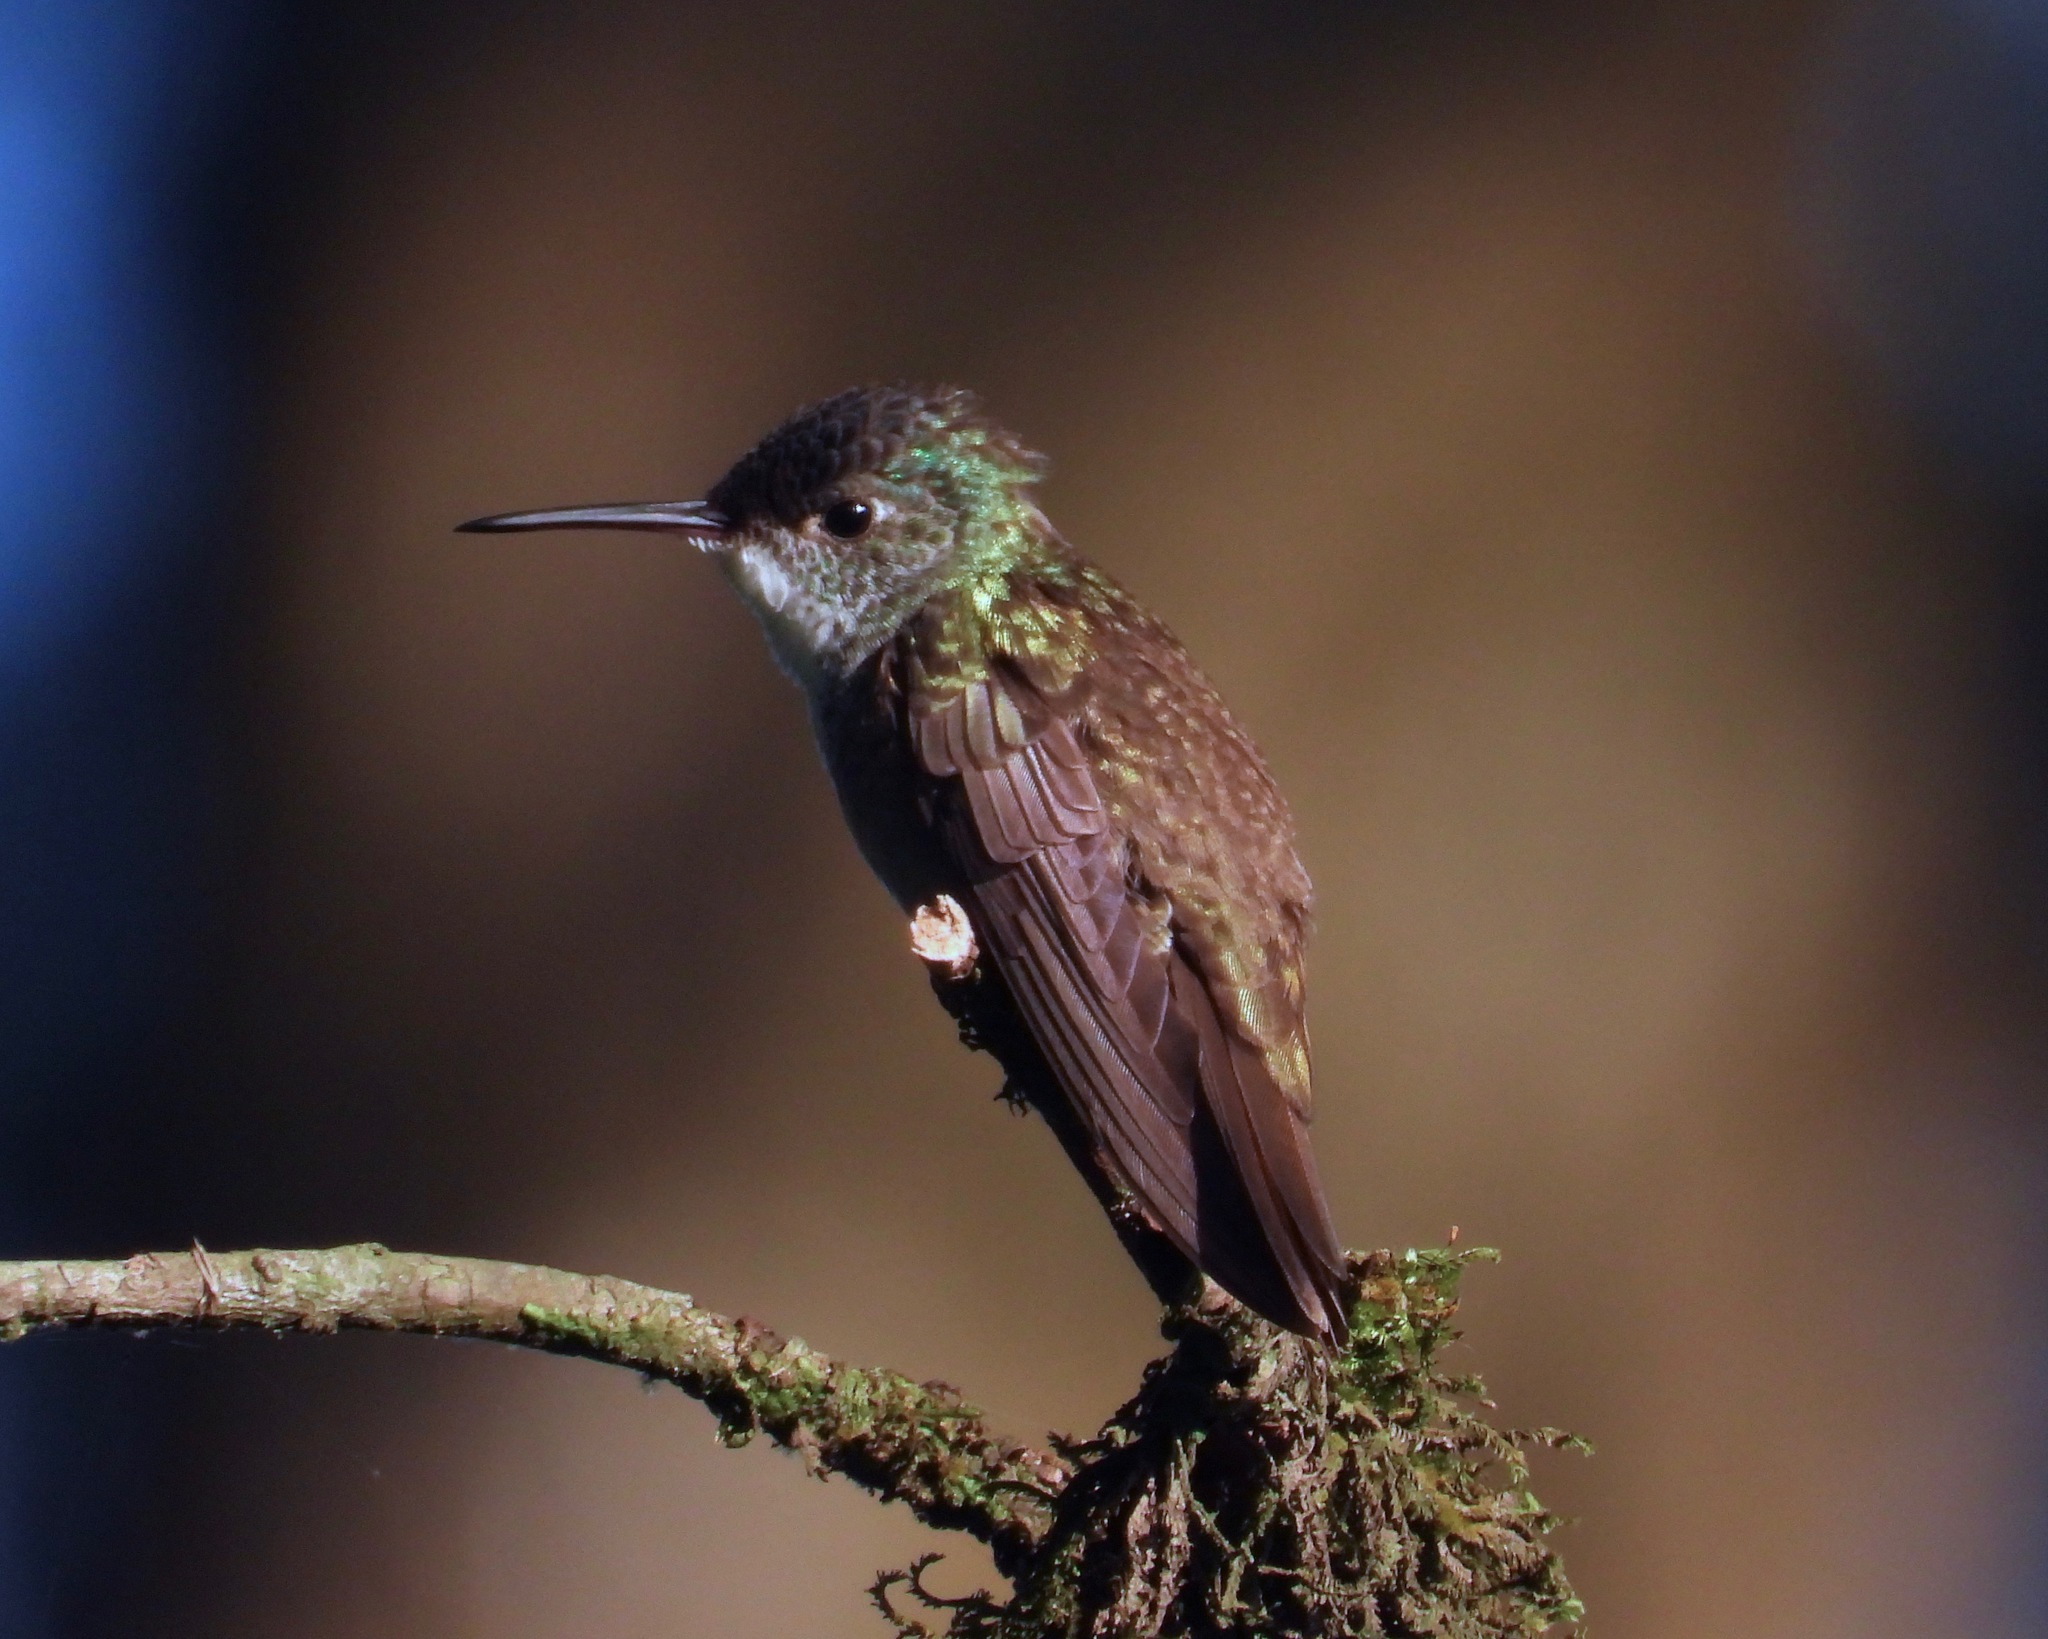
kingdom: Animalia
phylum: Chordata
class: Aves
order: Apodiformes
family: Trochilidae
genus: Saucerottia
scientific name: Saucerottia cyanocephala
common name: Azure-crowned hummingbird
